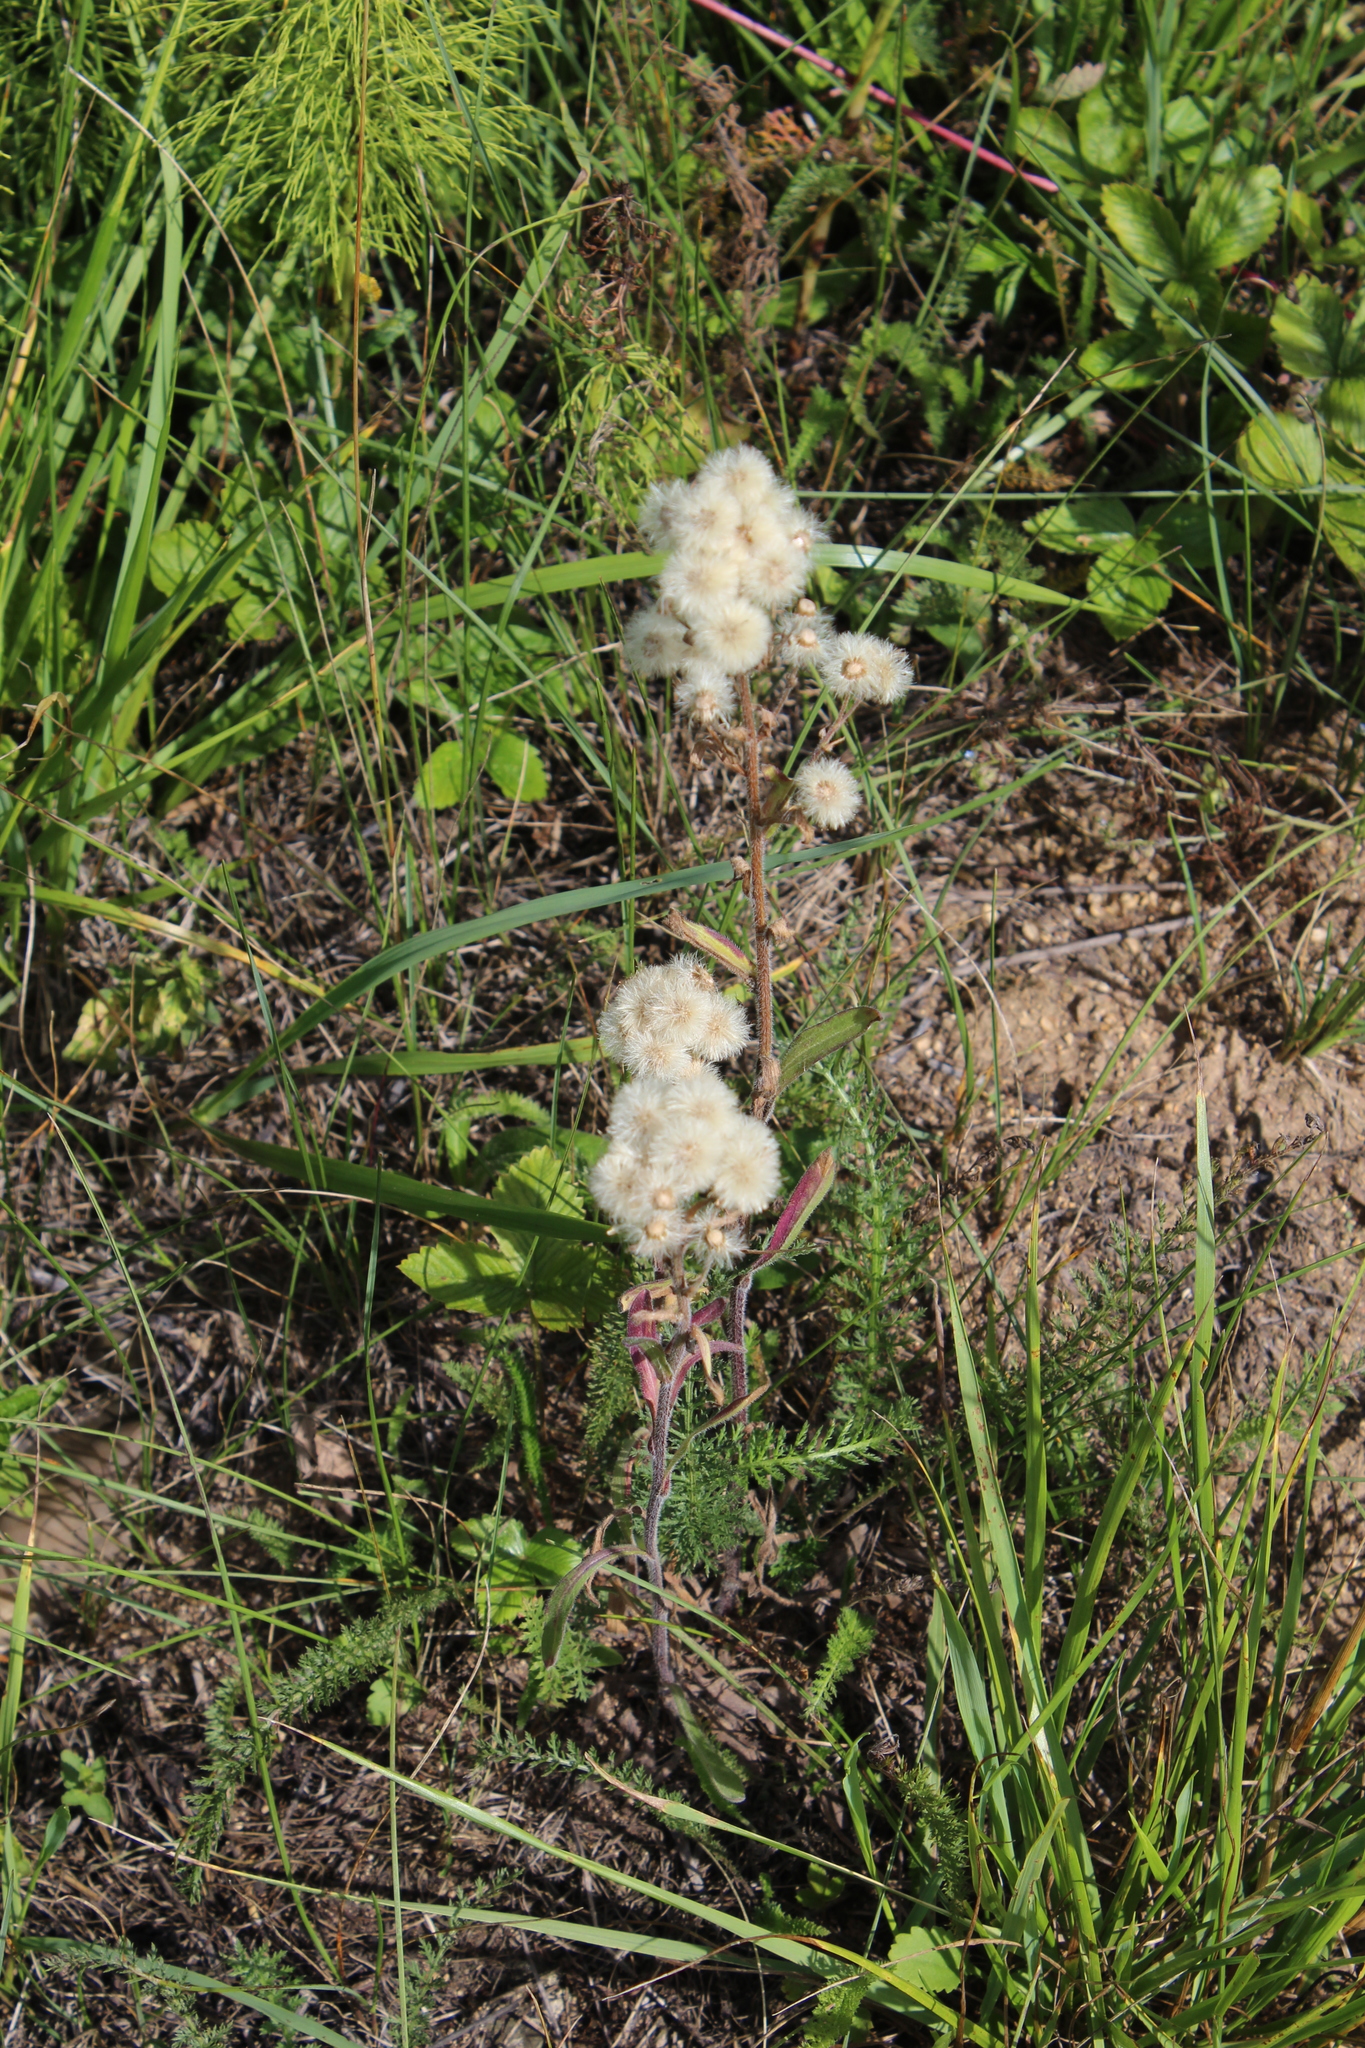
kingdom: Plantae
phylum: Tracheophyta
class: Magnoliopsida
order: Asterales
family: Asteraceae
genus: Erigeron
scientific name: Erigeron acris
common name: Blue fleabane
